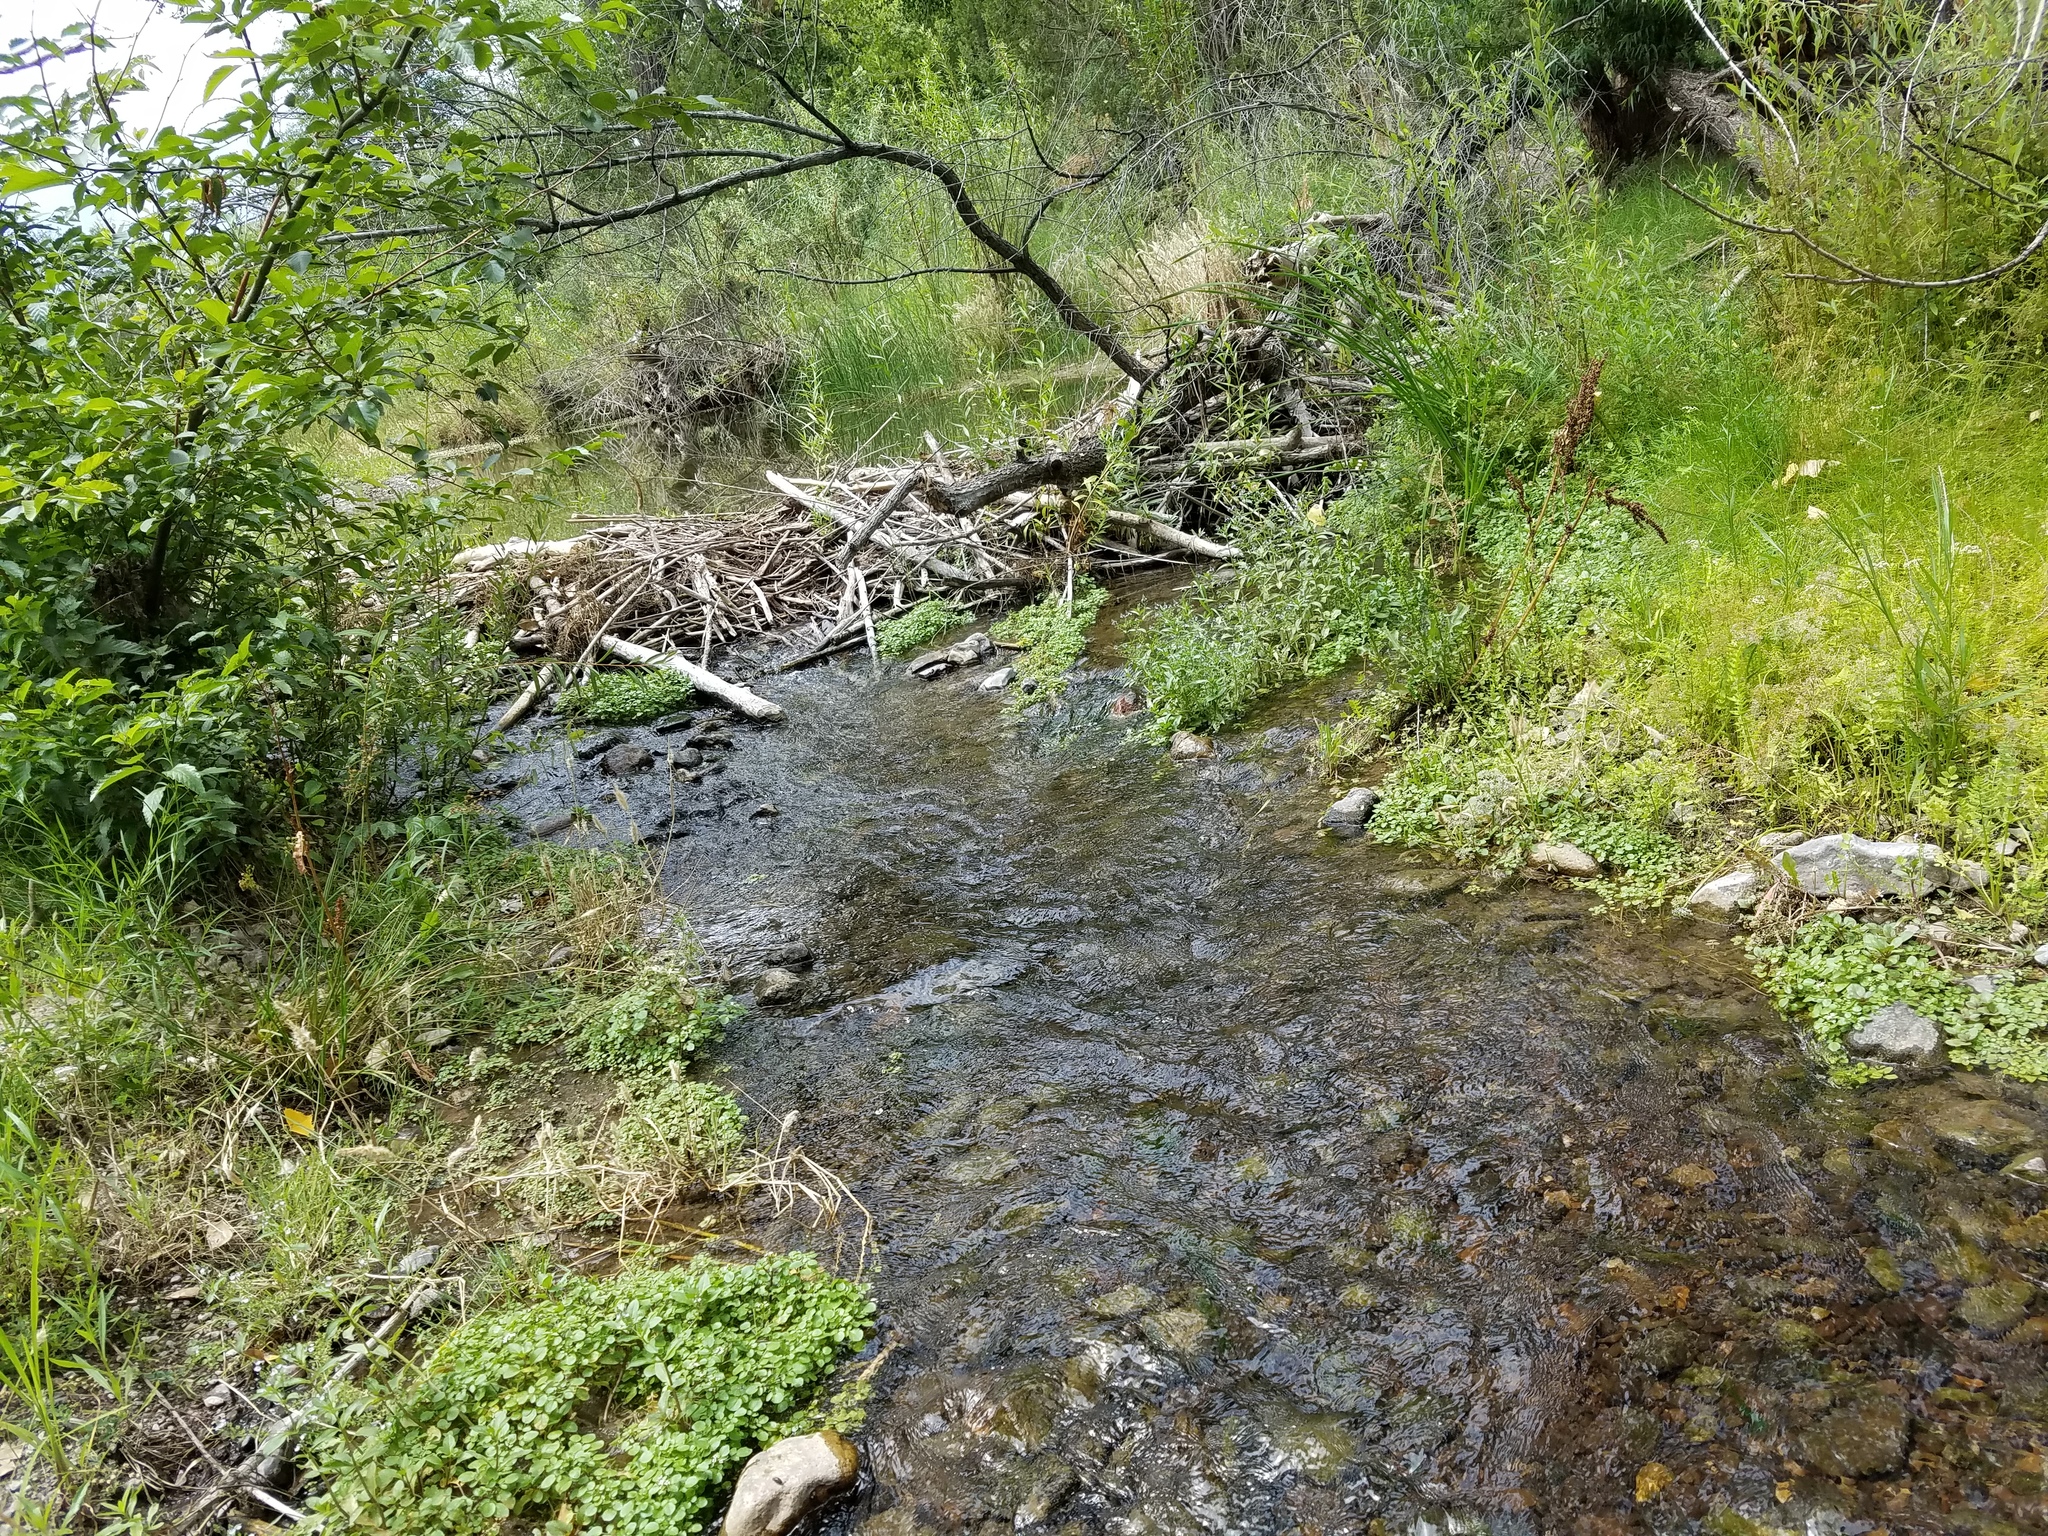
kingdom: Animalia
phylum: Chordata
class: Mammalia
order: Rodentia
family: Castoridae
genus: Castor
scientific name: Castor canadensis
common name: American beaver
